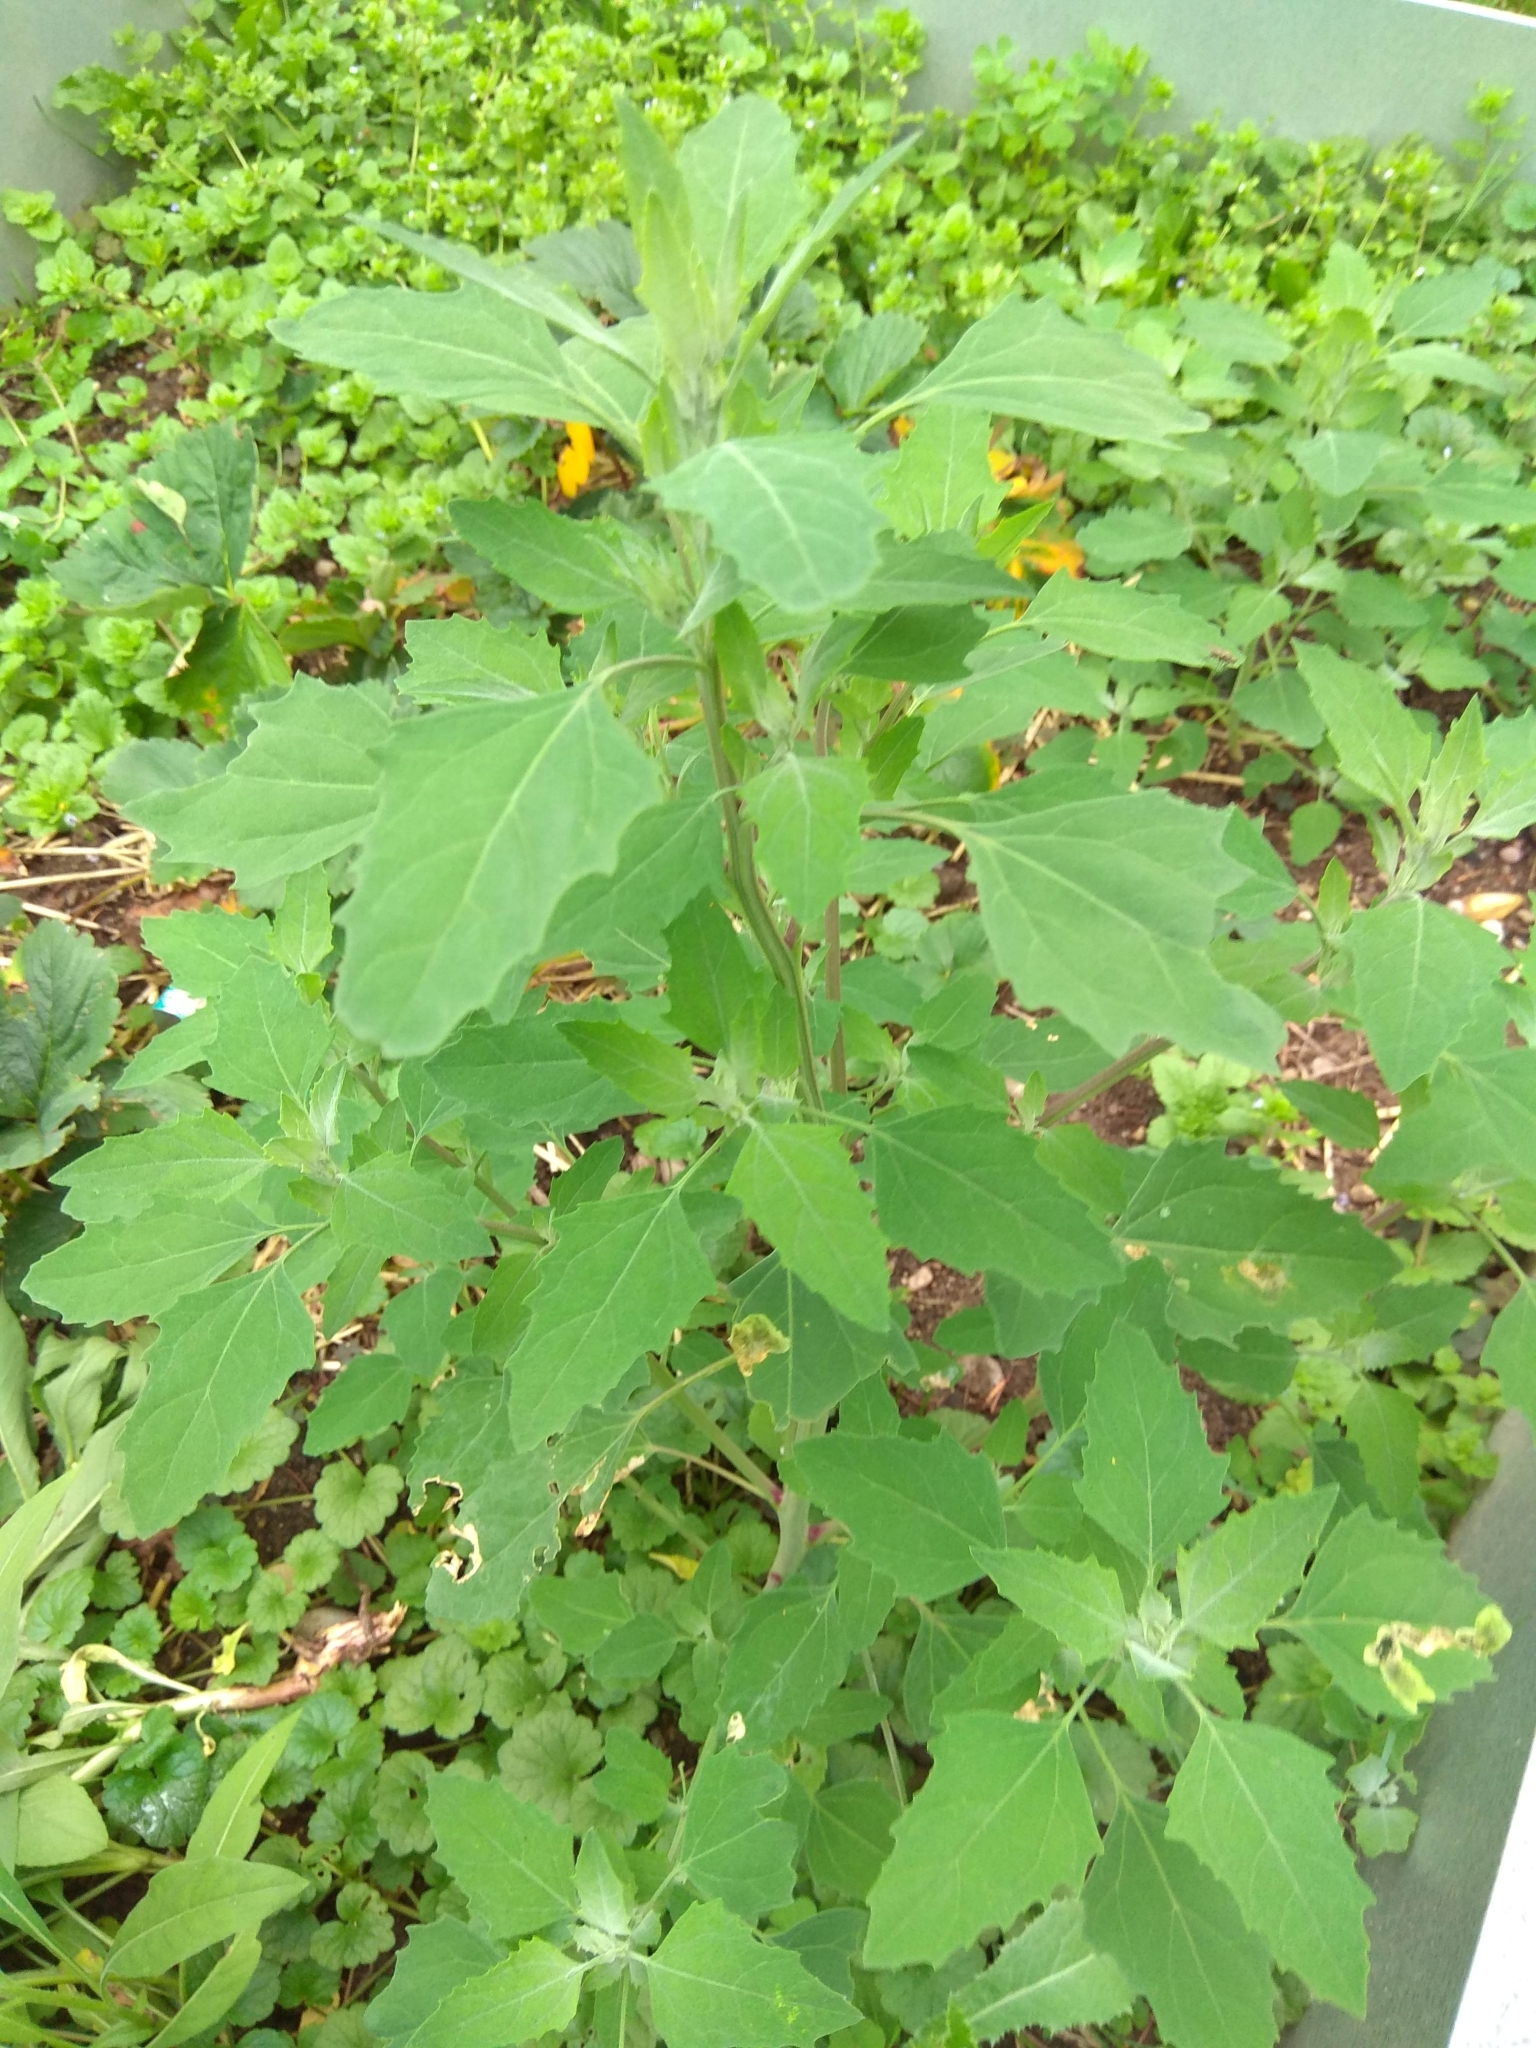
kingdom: Plantae
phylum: Tracheophyta
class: Magnoliopsida
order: Caryophyllales
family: Amaranthaceae
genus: Chenopodium
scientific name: Chenopodium album
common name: Fat-hen
